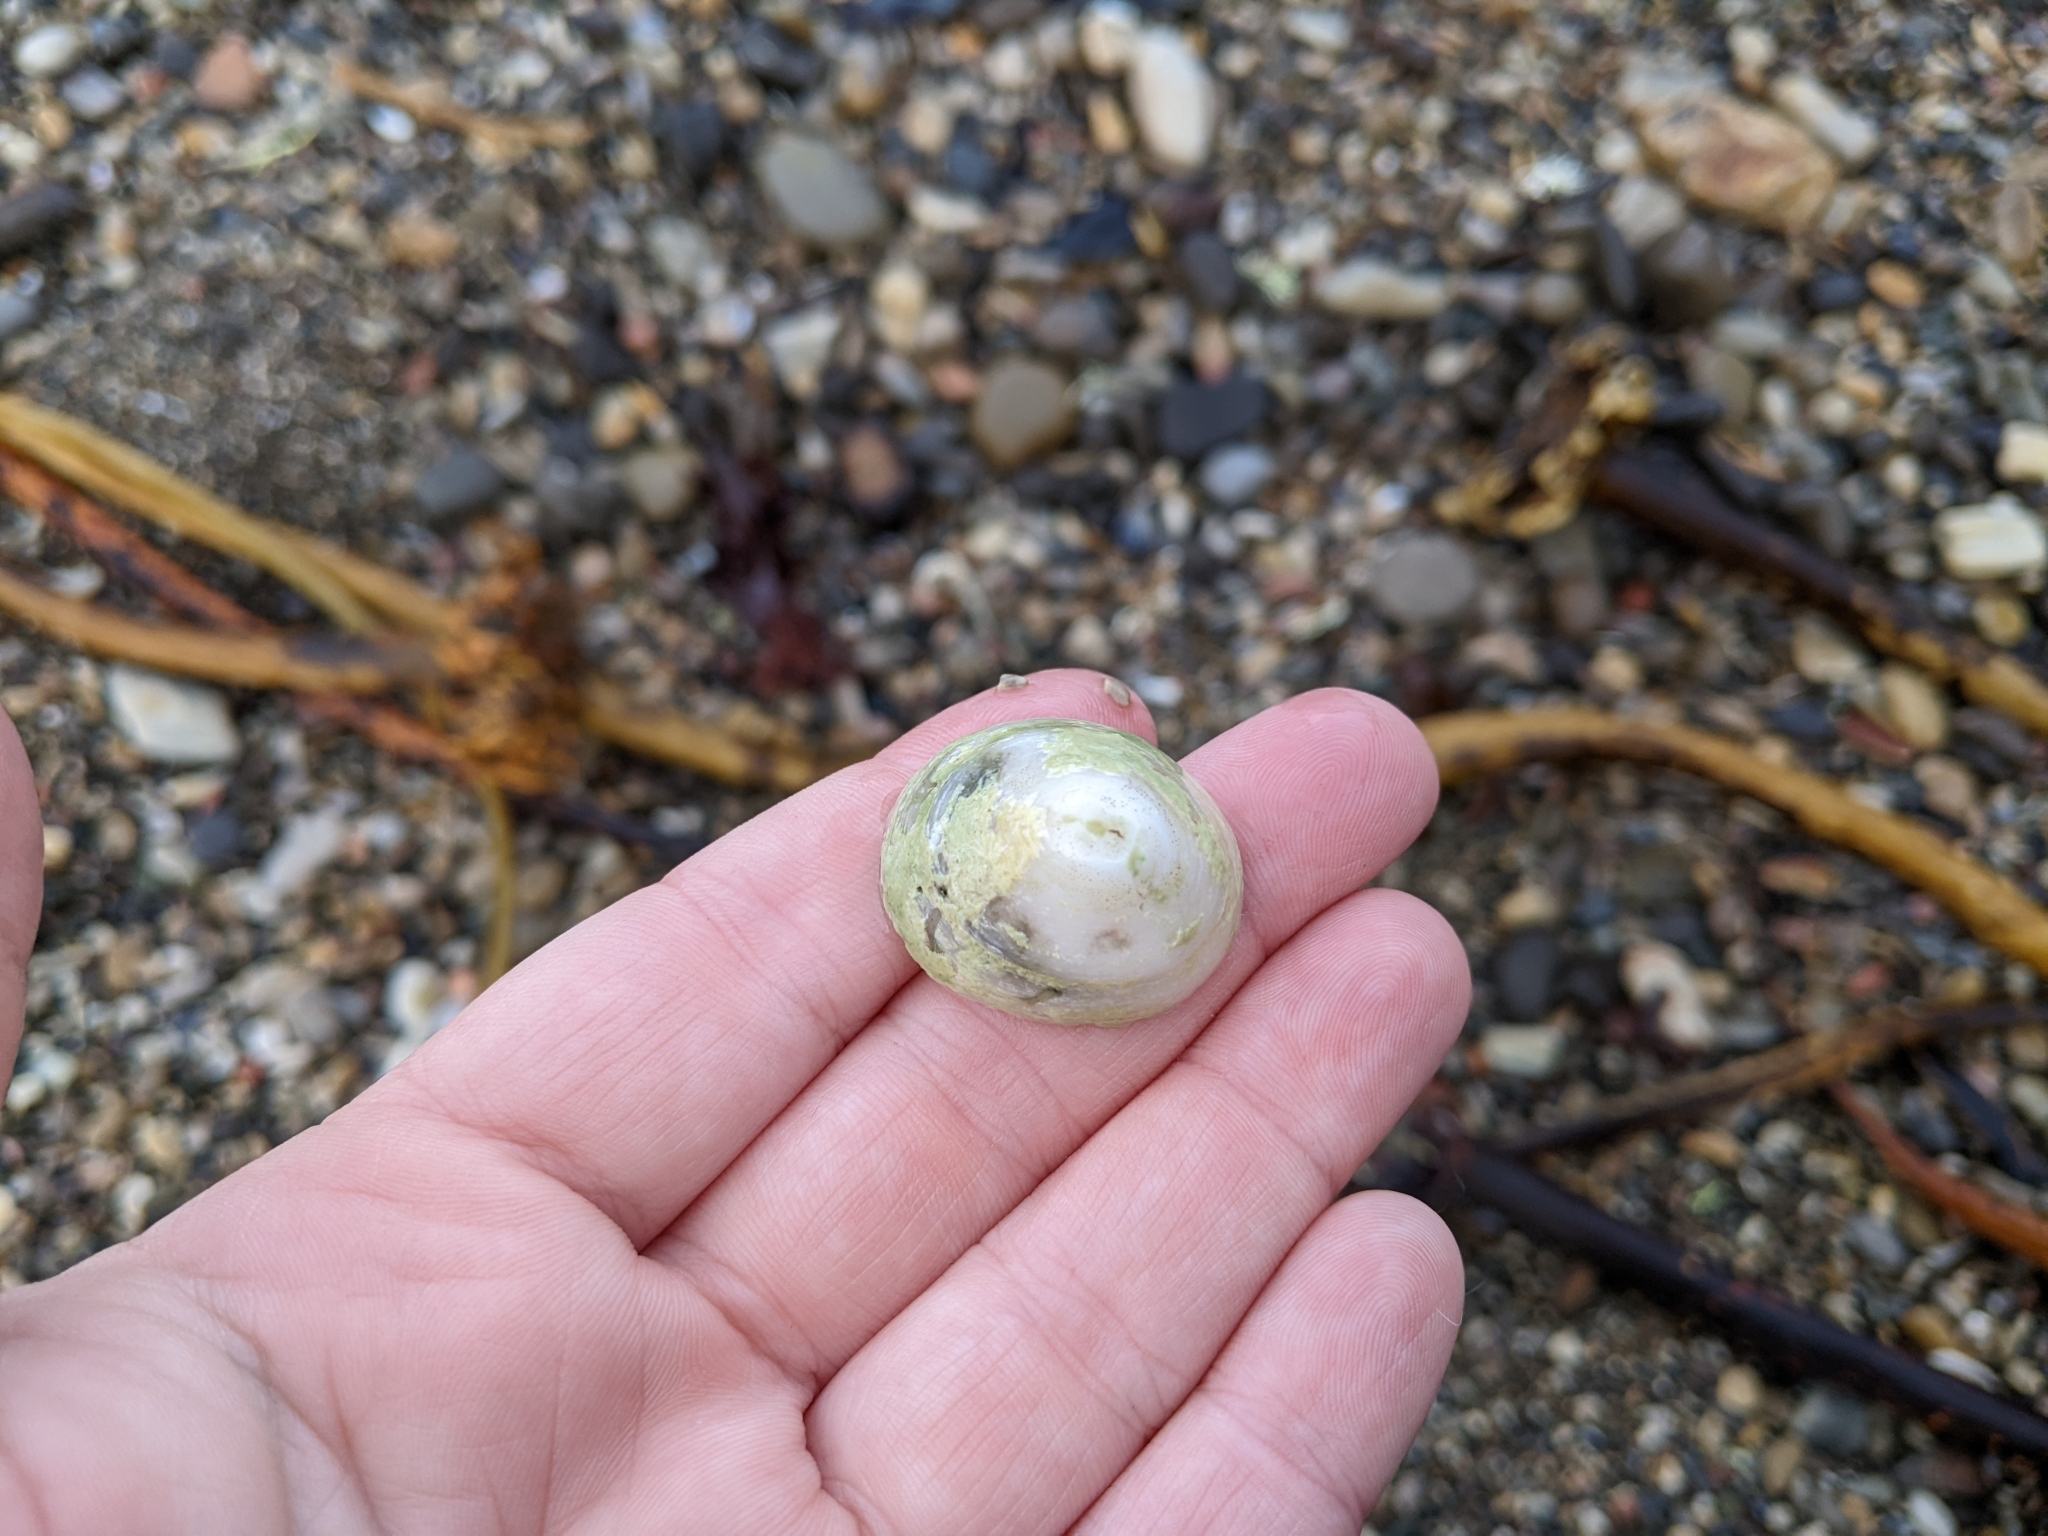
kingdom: Animalia
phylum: Mollusca
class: Gastropoda
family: Acmaeidae
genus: Acmaea
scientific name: Acmaea mitra
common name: Pacific white cap limpet
